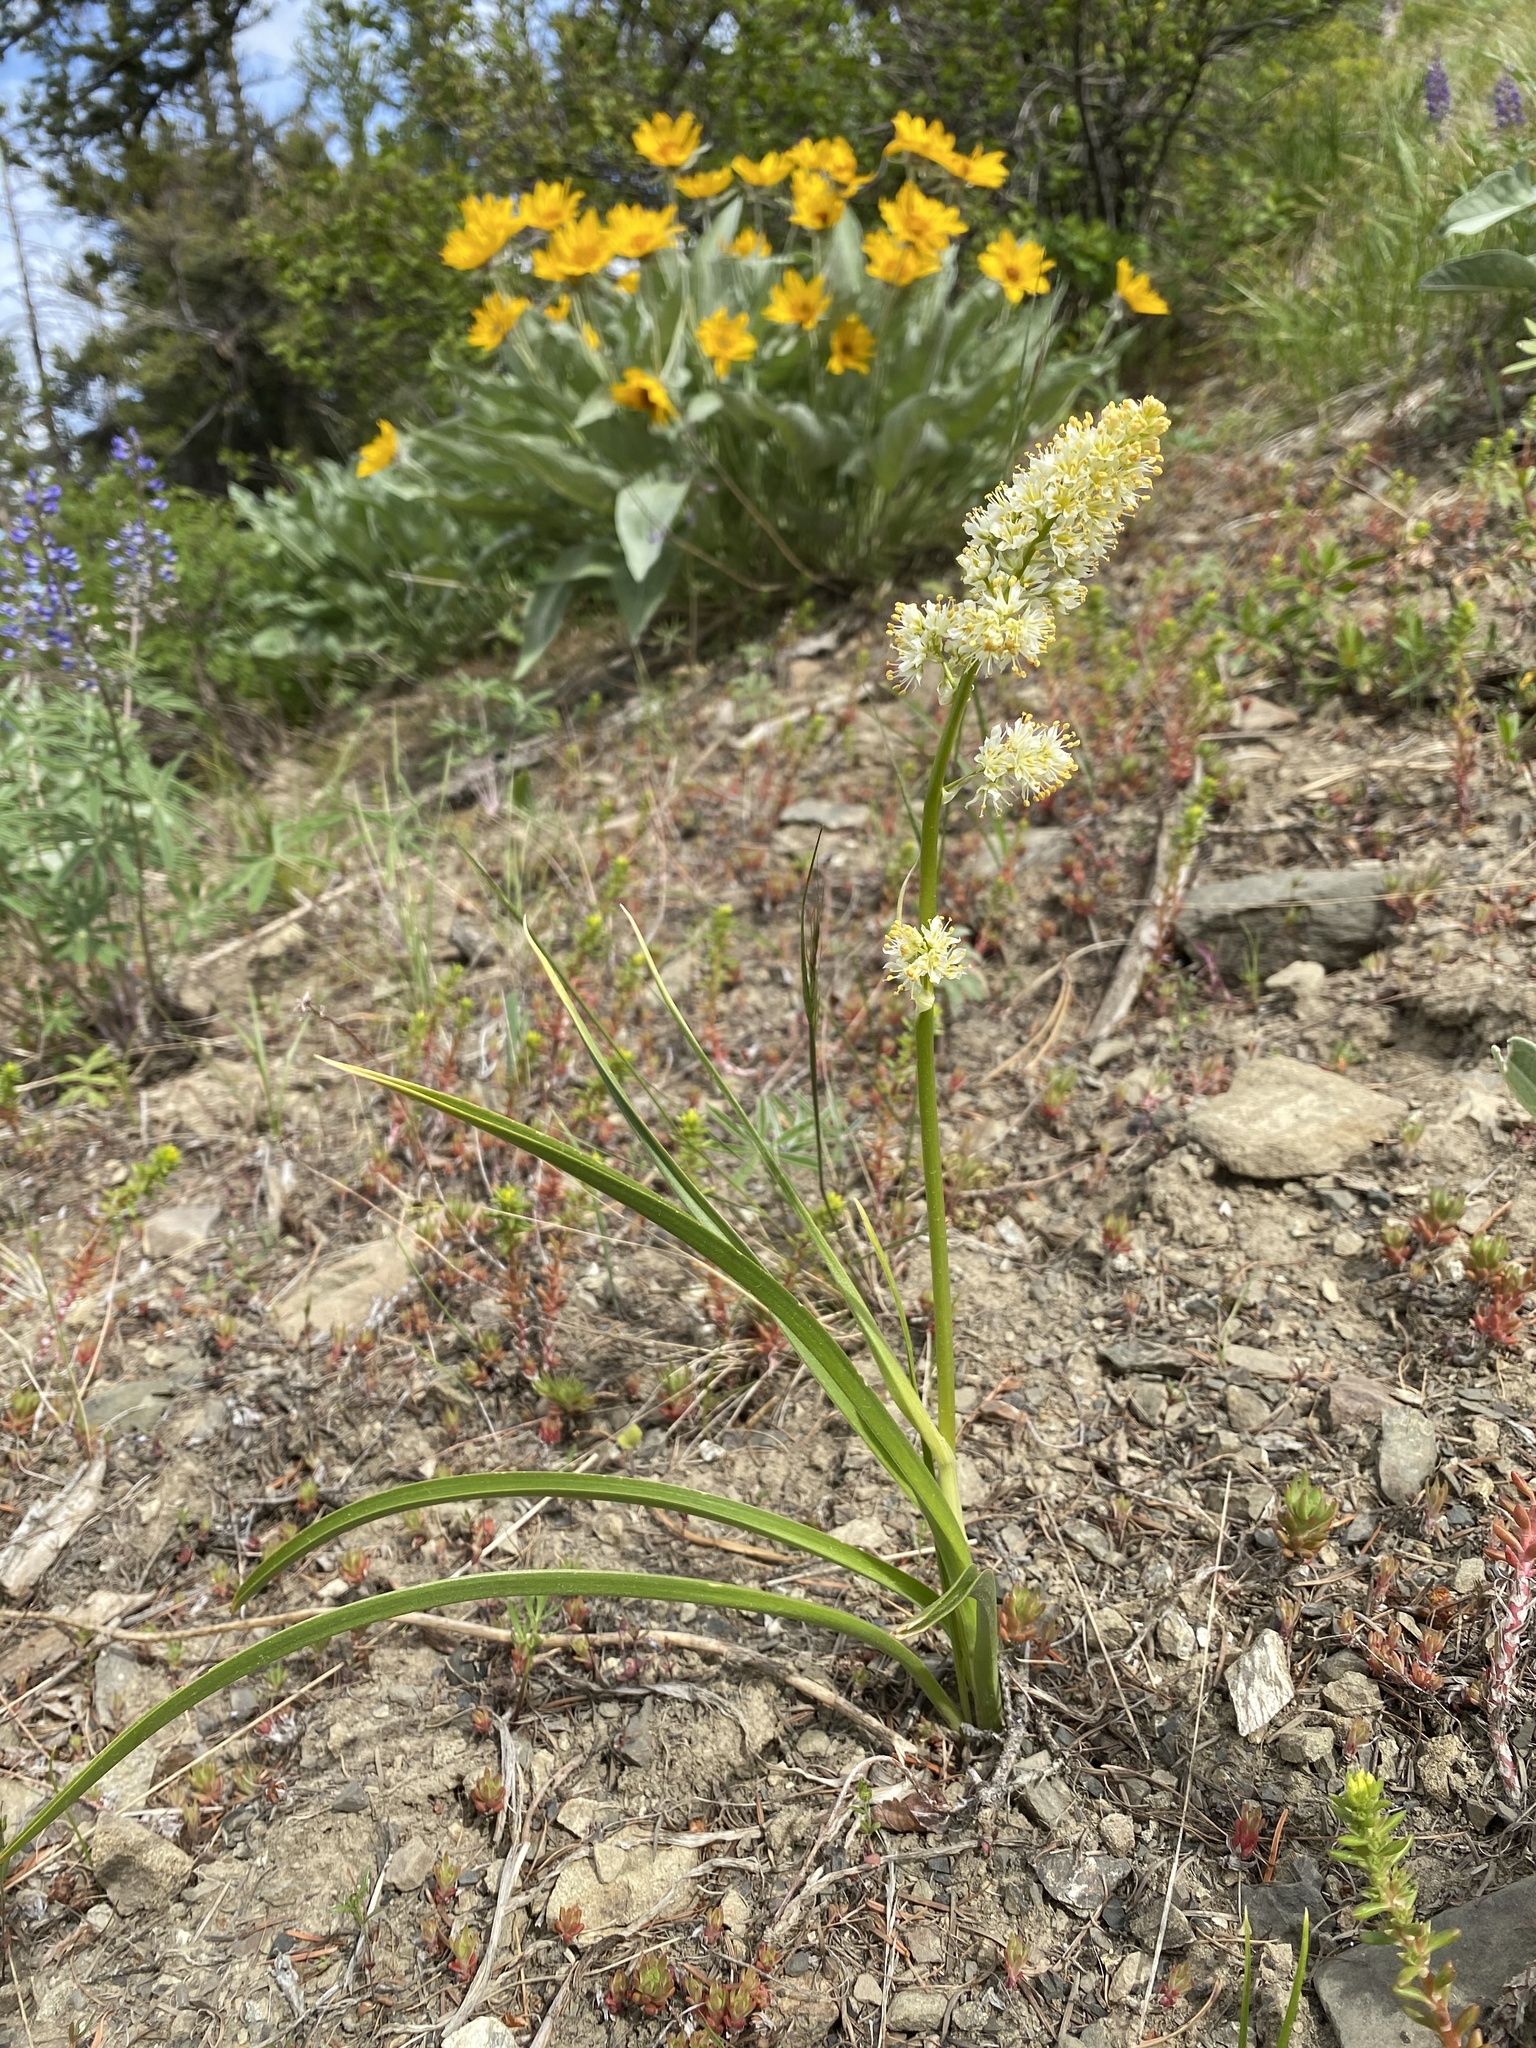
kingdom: Plantae
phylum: Tracheophyta
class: Liliopsida
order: Liliales
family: Melanthiaceae
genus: Toxicoscordion
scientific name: Toxicoscordion paniculatum
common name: Foothill death camas
